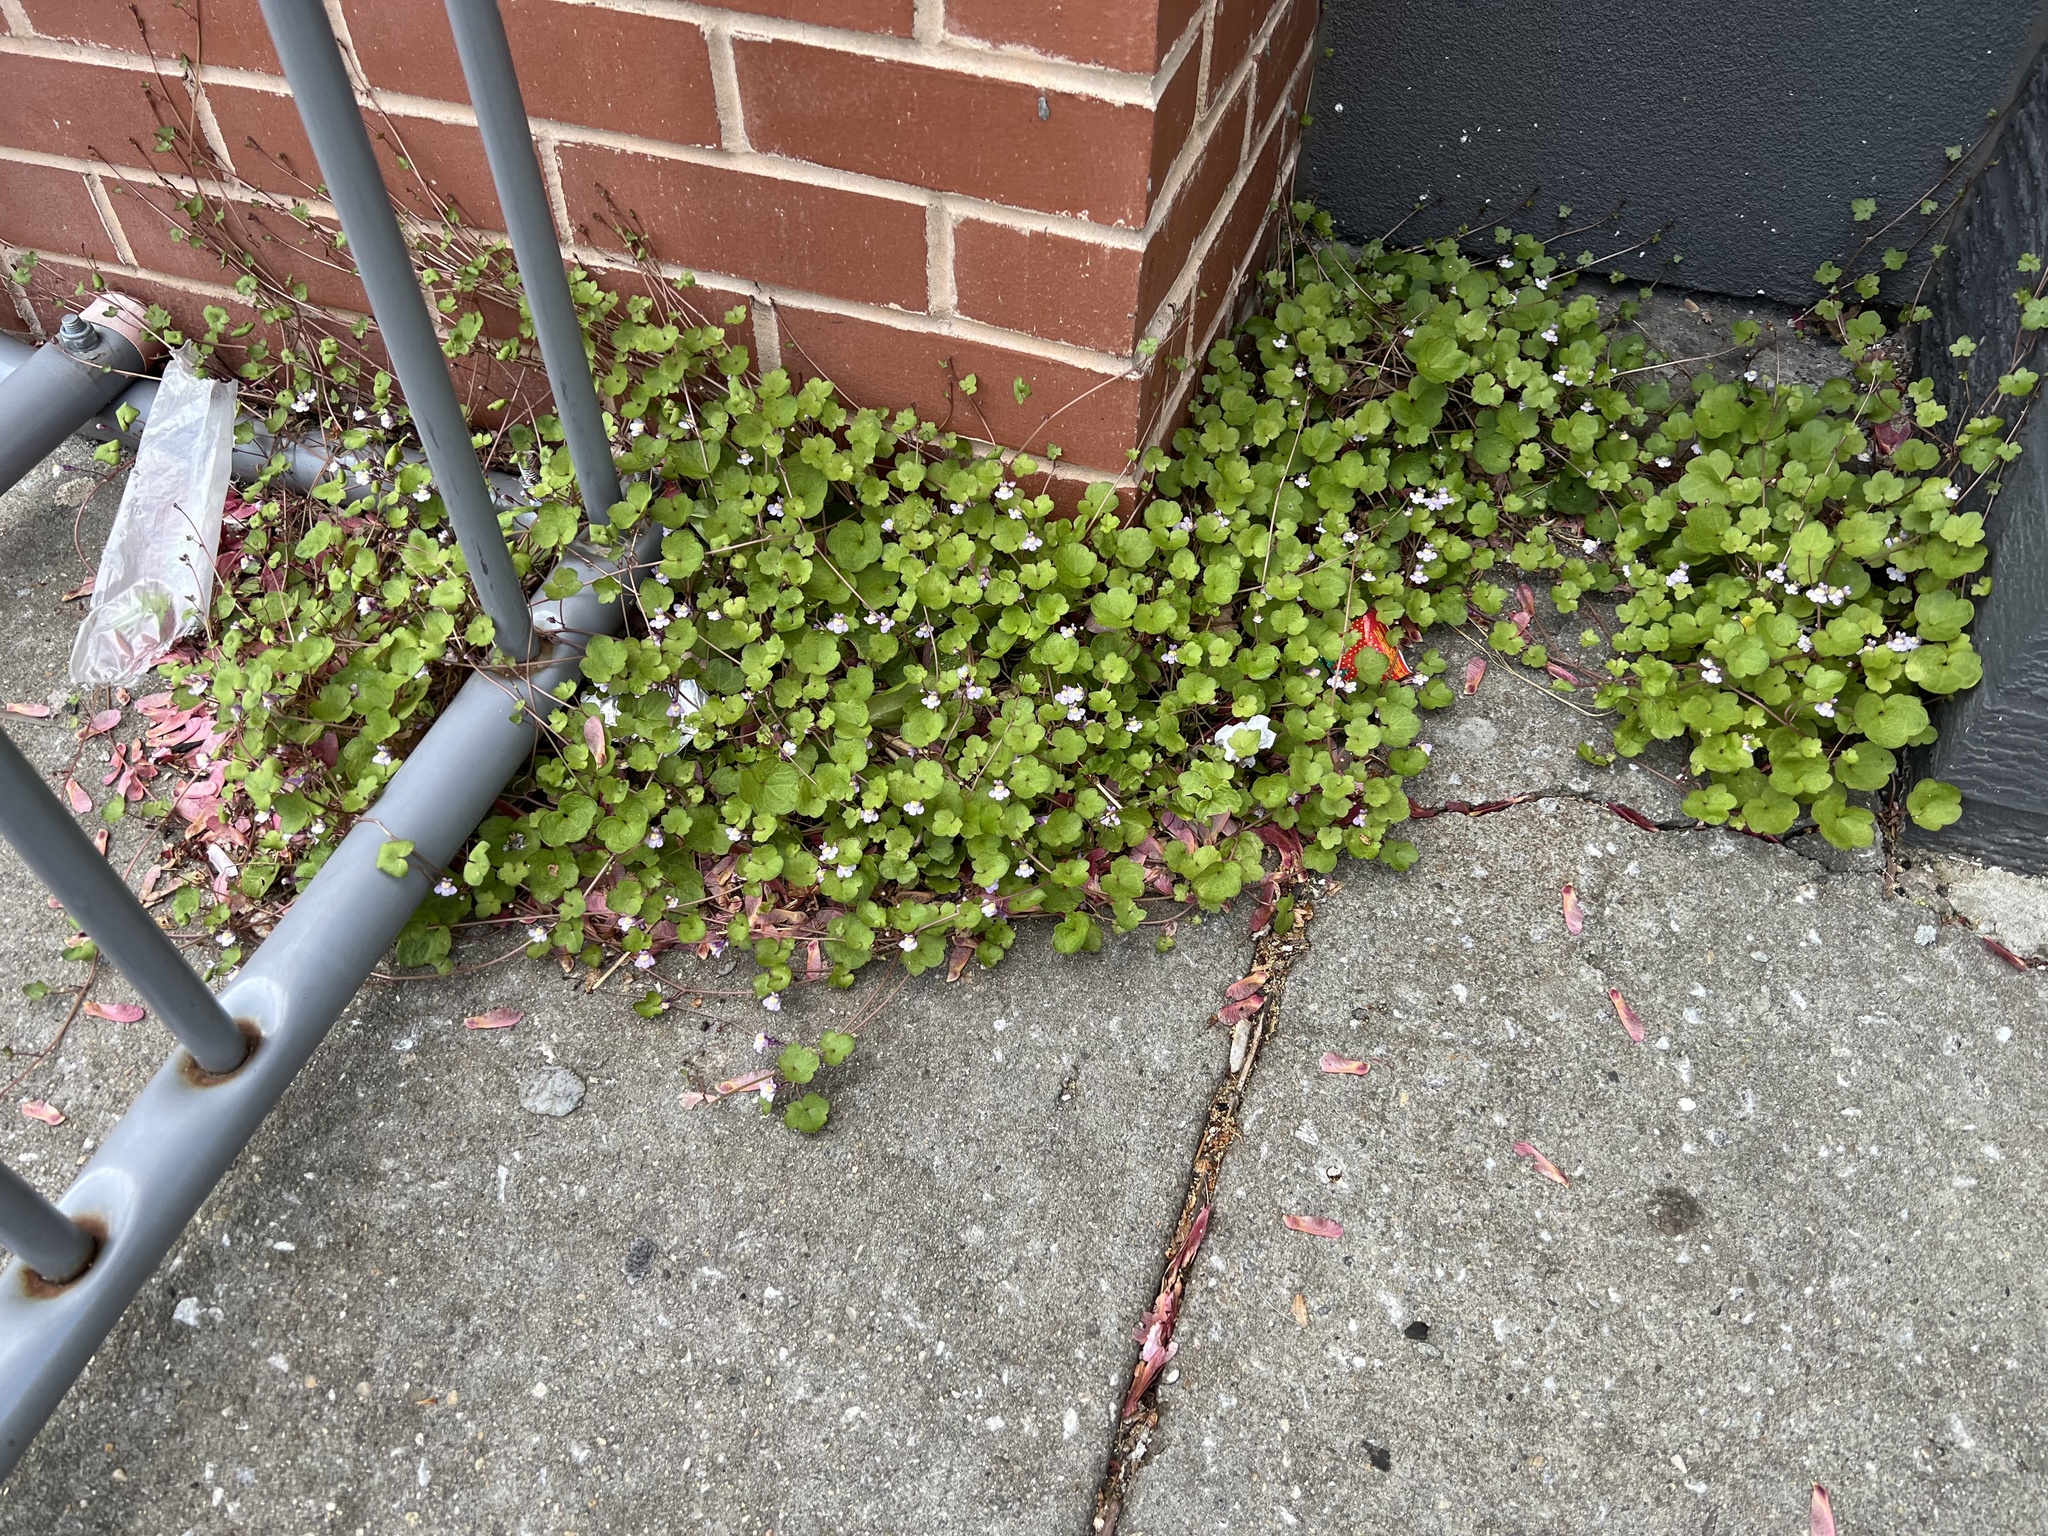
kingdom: Plantae
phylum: Tracheophyta
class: Magnoliopsida
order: Lamiales
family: Plantaginaceae
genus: Cymbalaria
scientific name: Cymbalaria muralis
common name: Ivy-leaved toadflax
